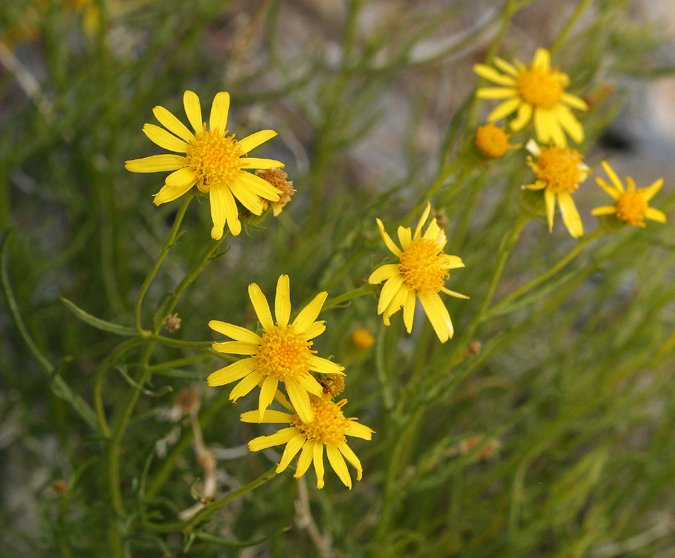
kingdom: Plantae
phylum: Tracheophyta
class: Magnoliopsida
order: Asterales
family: Asteraceae
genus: Senecio
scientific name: Senecio flaccidus
